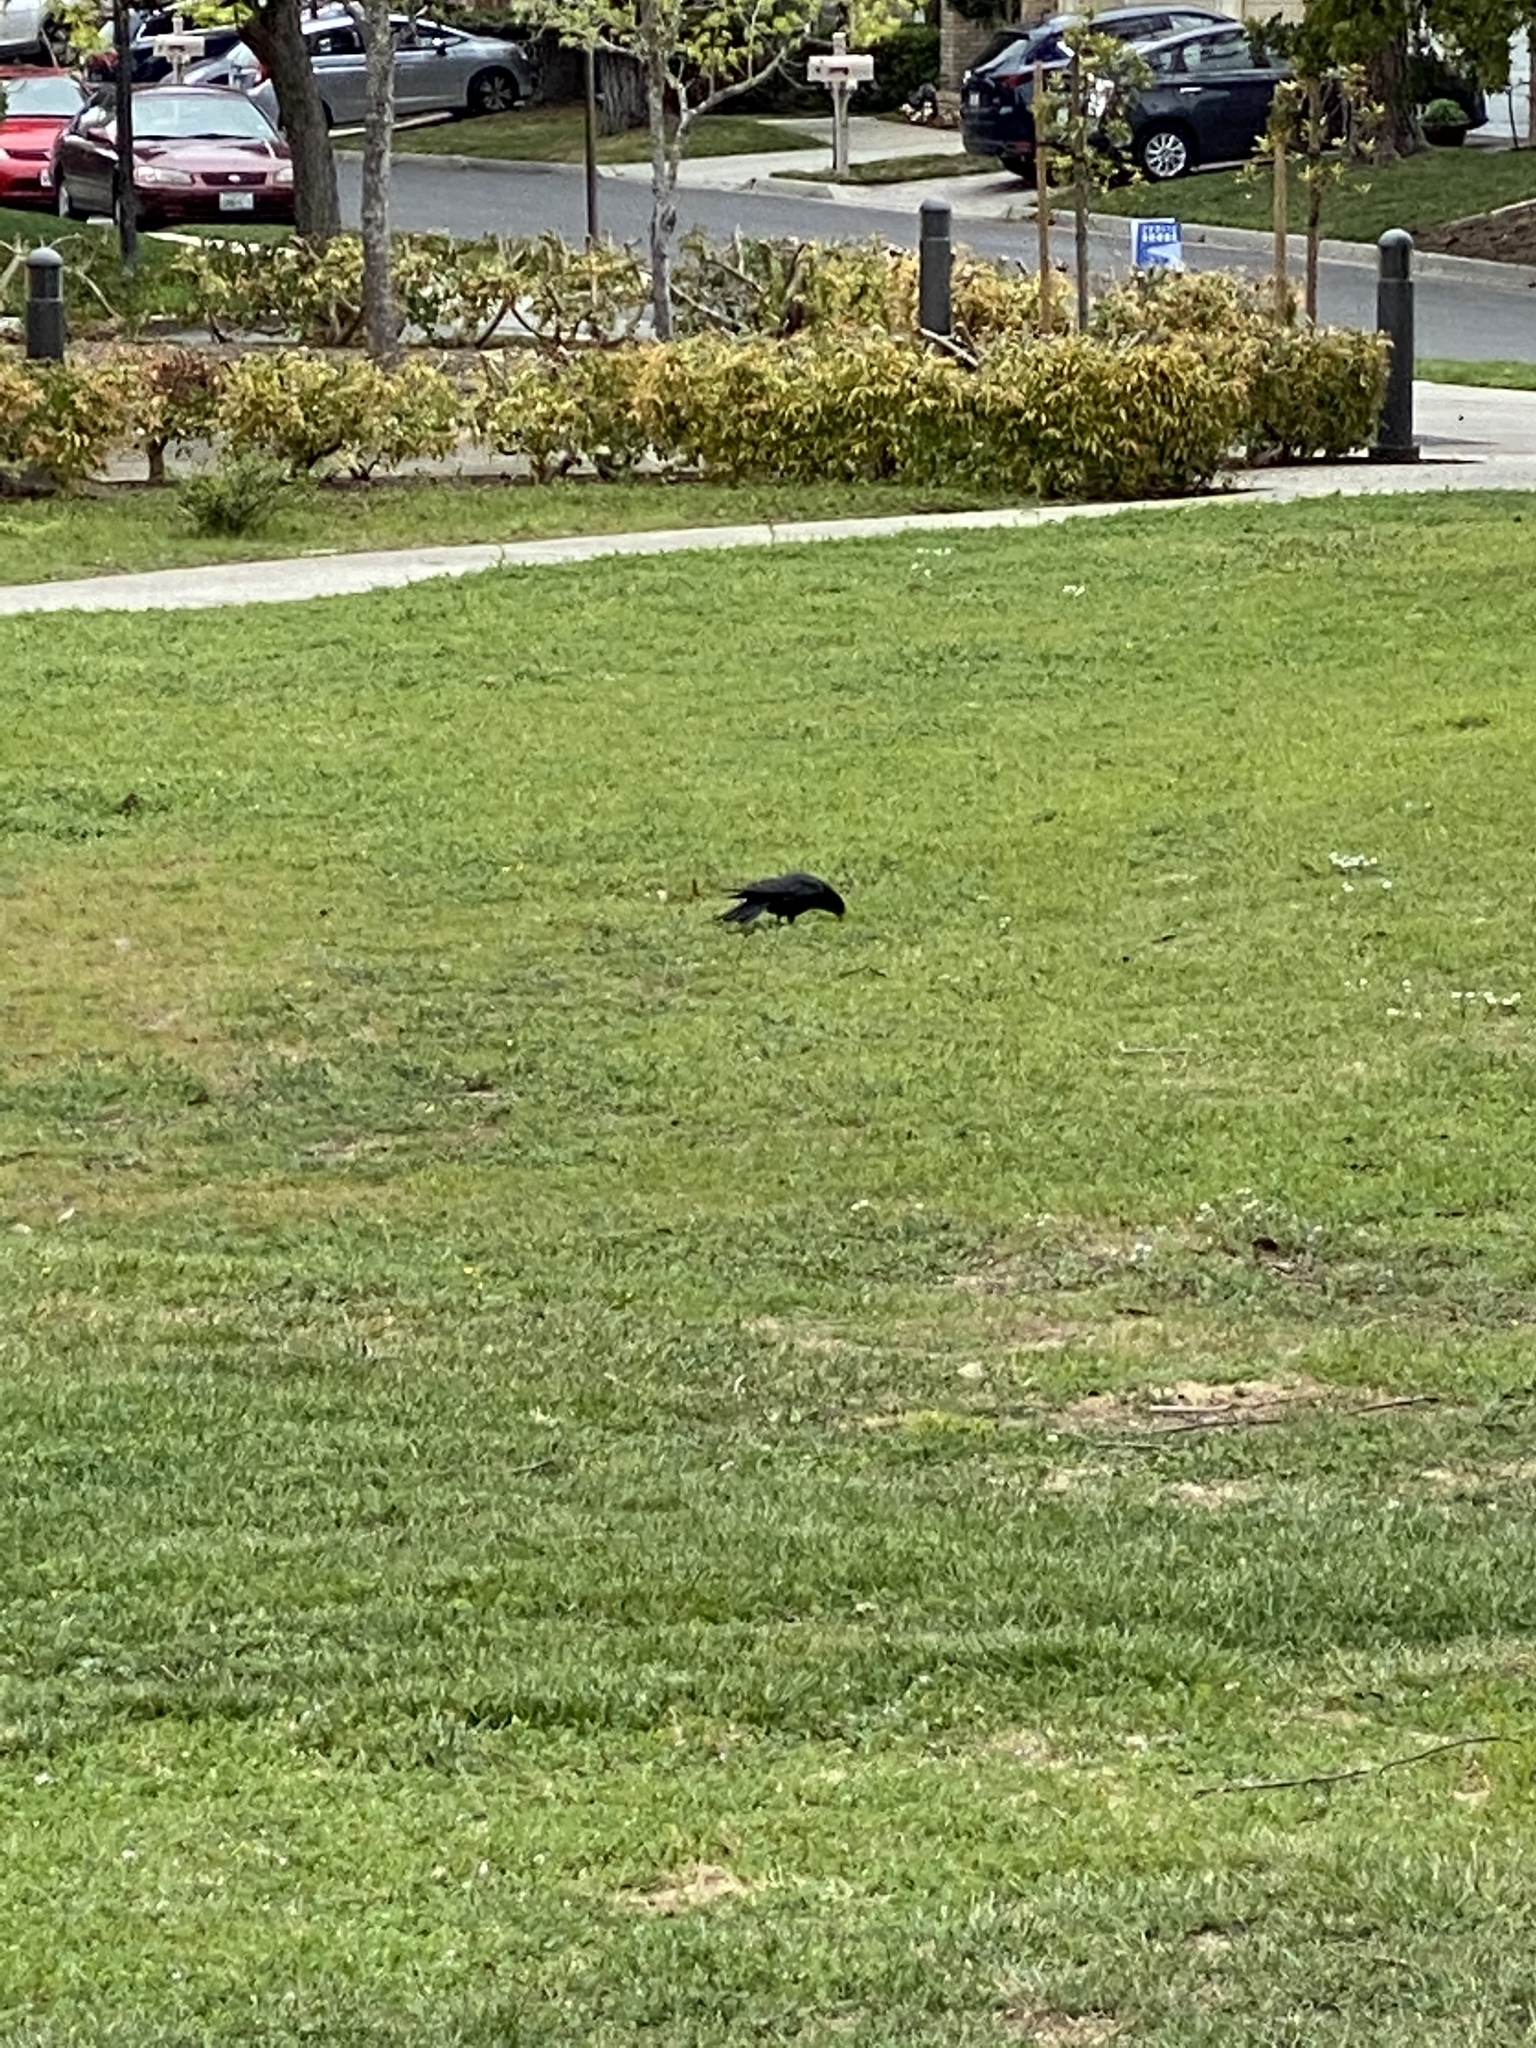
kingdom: Animalia
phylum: Chordata
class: Aves
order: Passeriformes
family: Corvidae
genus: Corvus
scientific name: Corvus brachyrhynchos
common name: American crow
